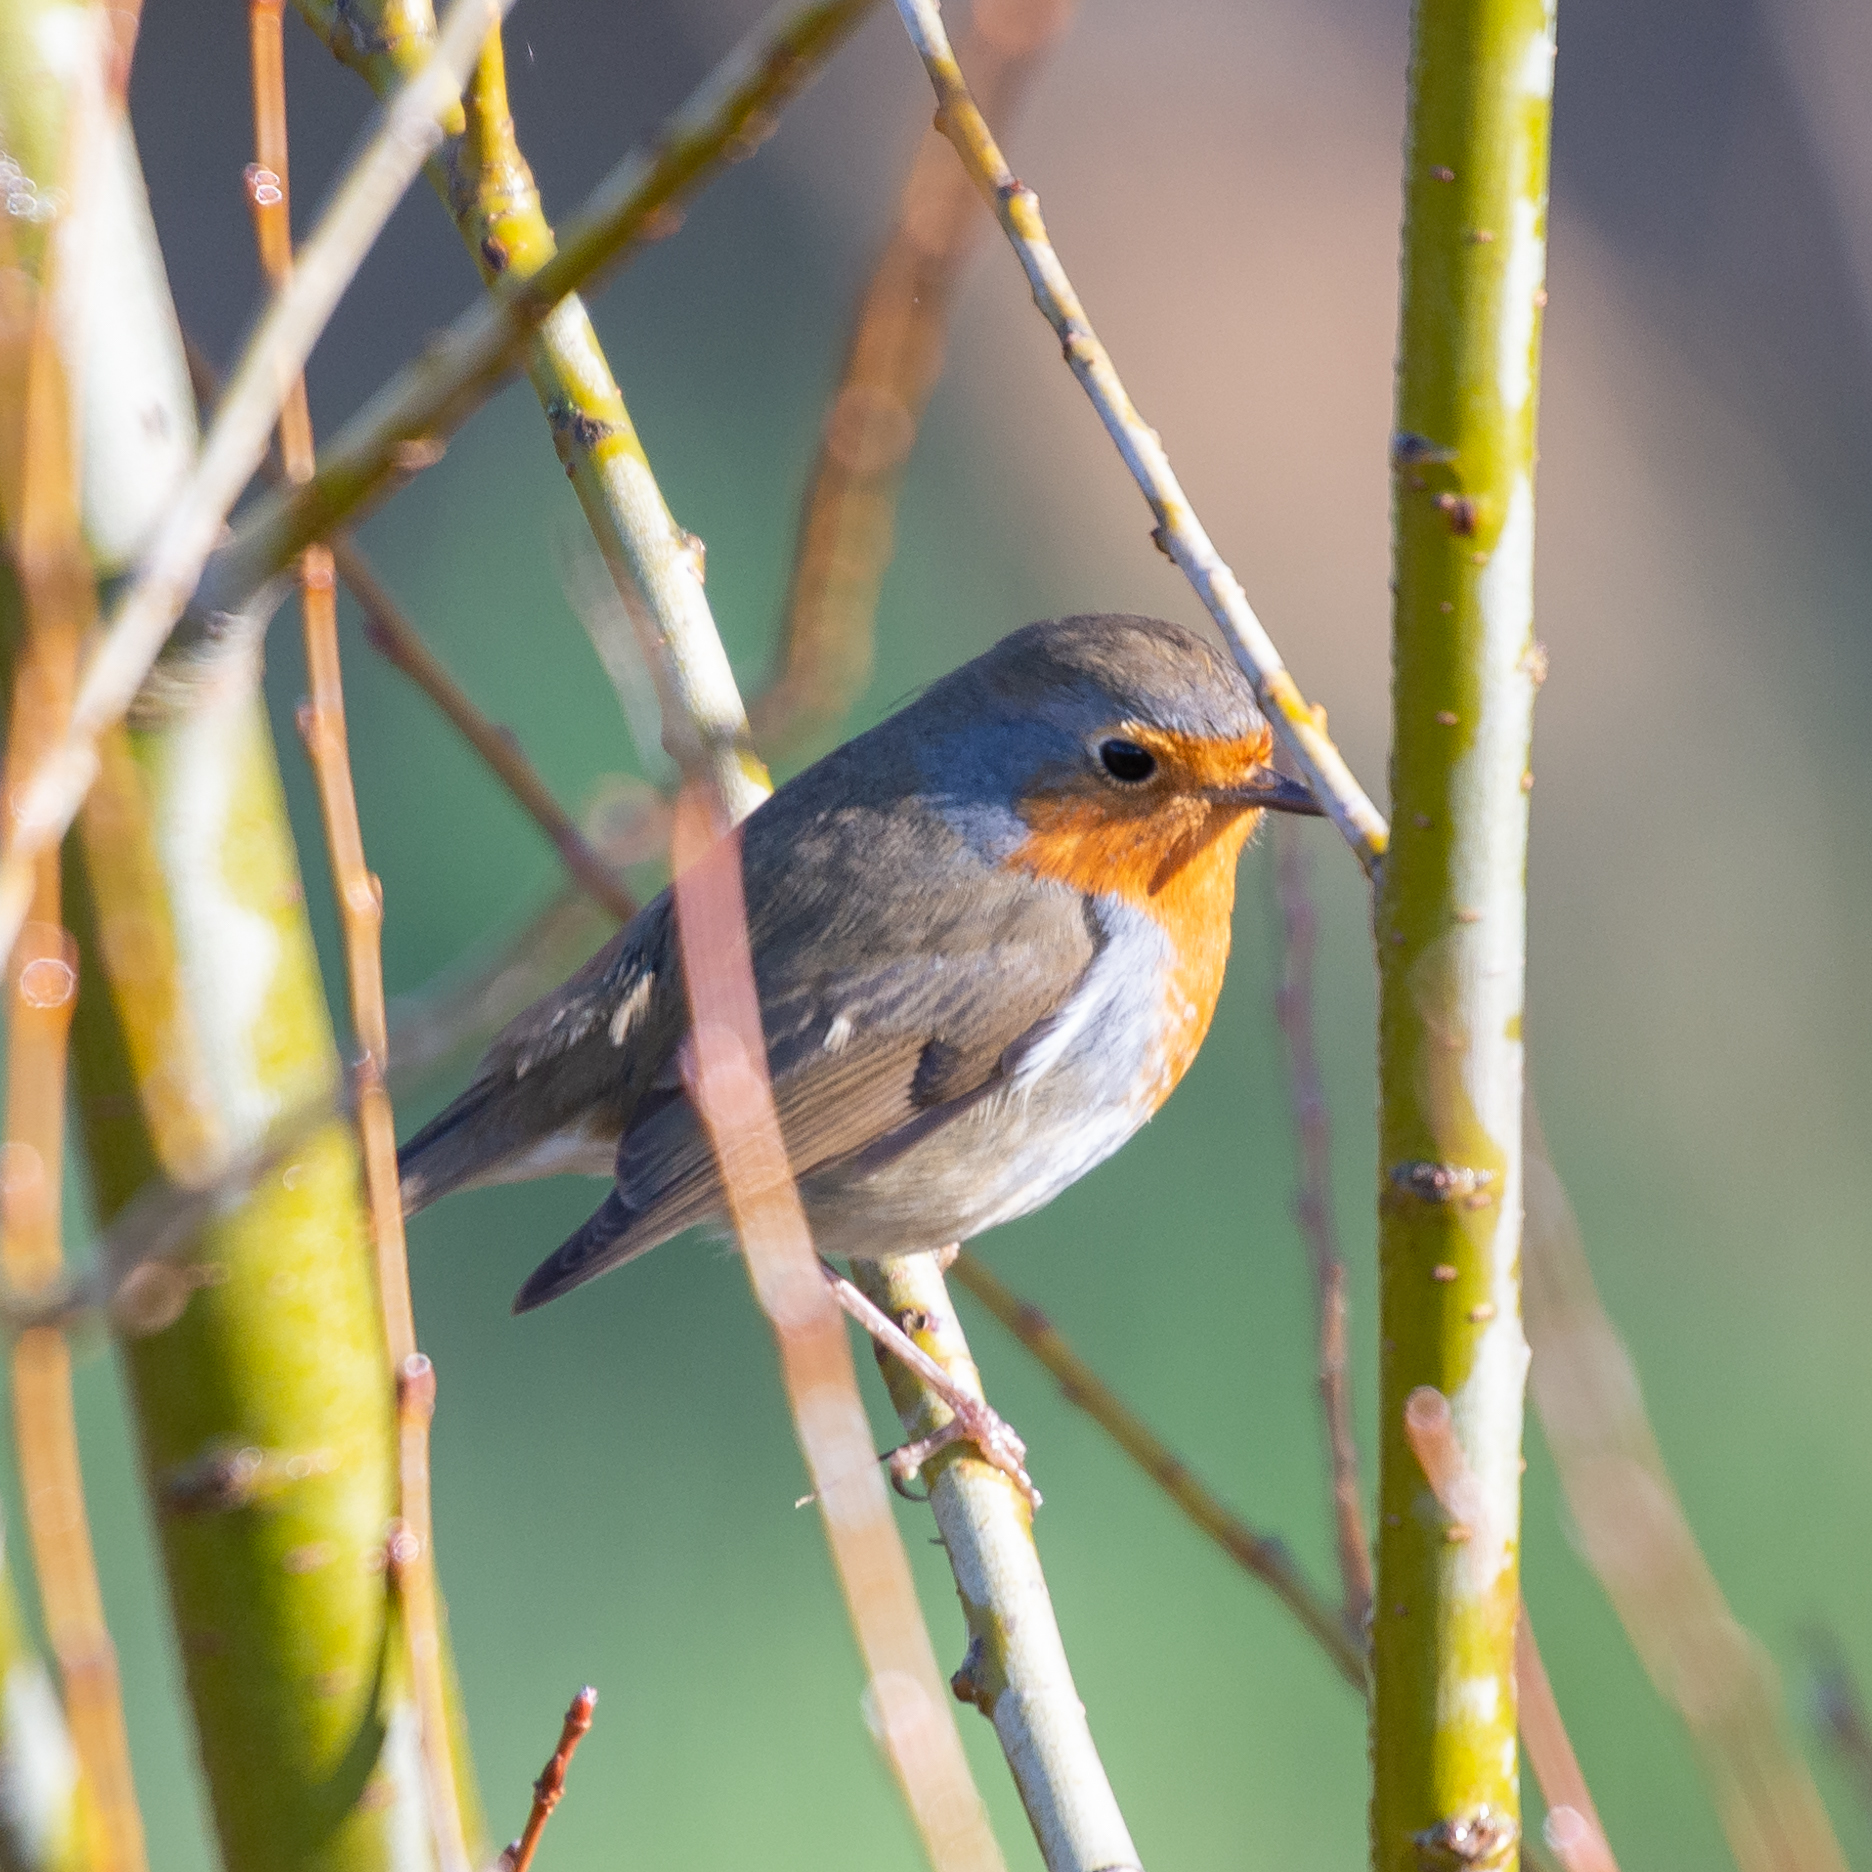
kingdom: Animalia
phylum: Chordata
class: Aves
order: Passeriformes
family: Muscicapidae
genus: Erithacus
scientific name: Erithacus rubecula
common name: European robin
